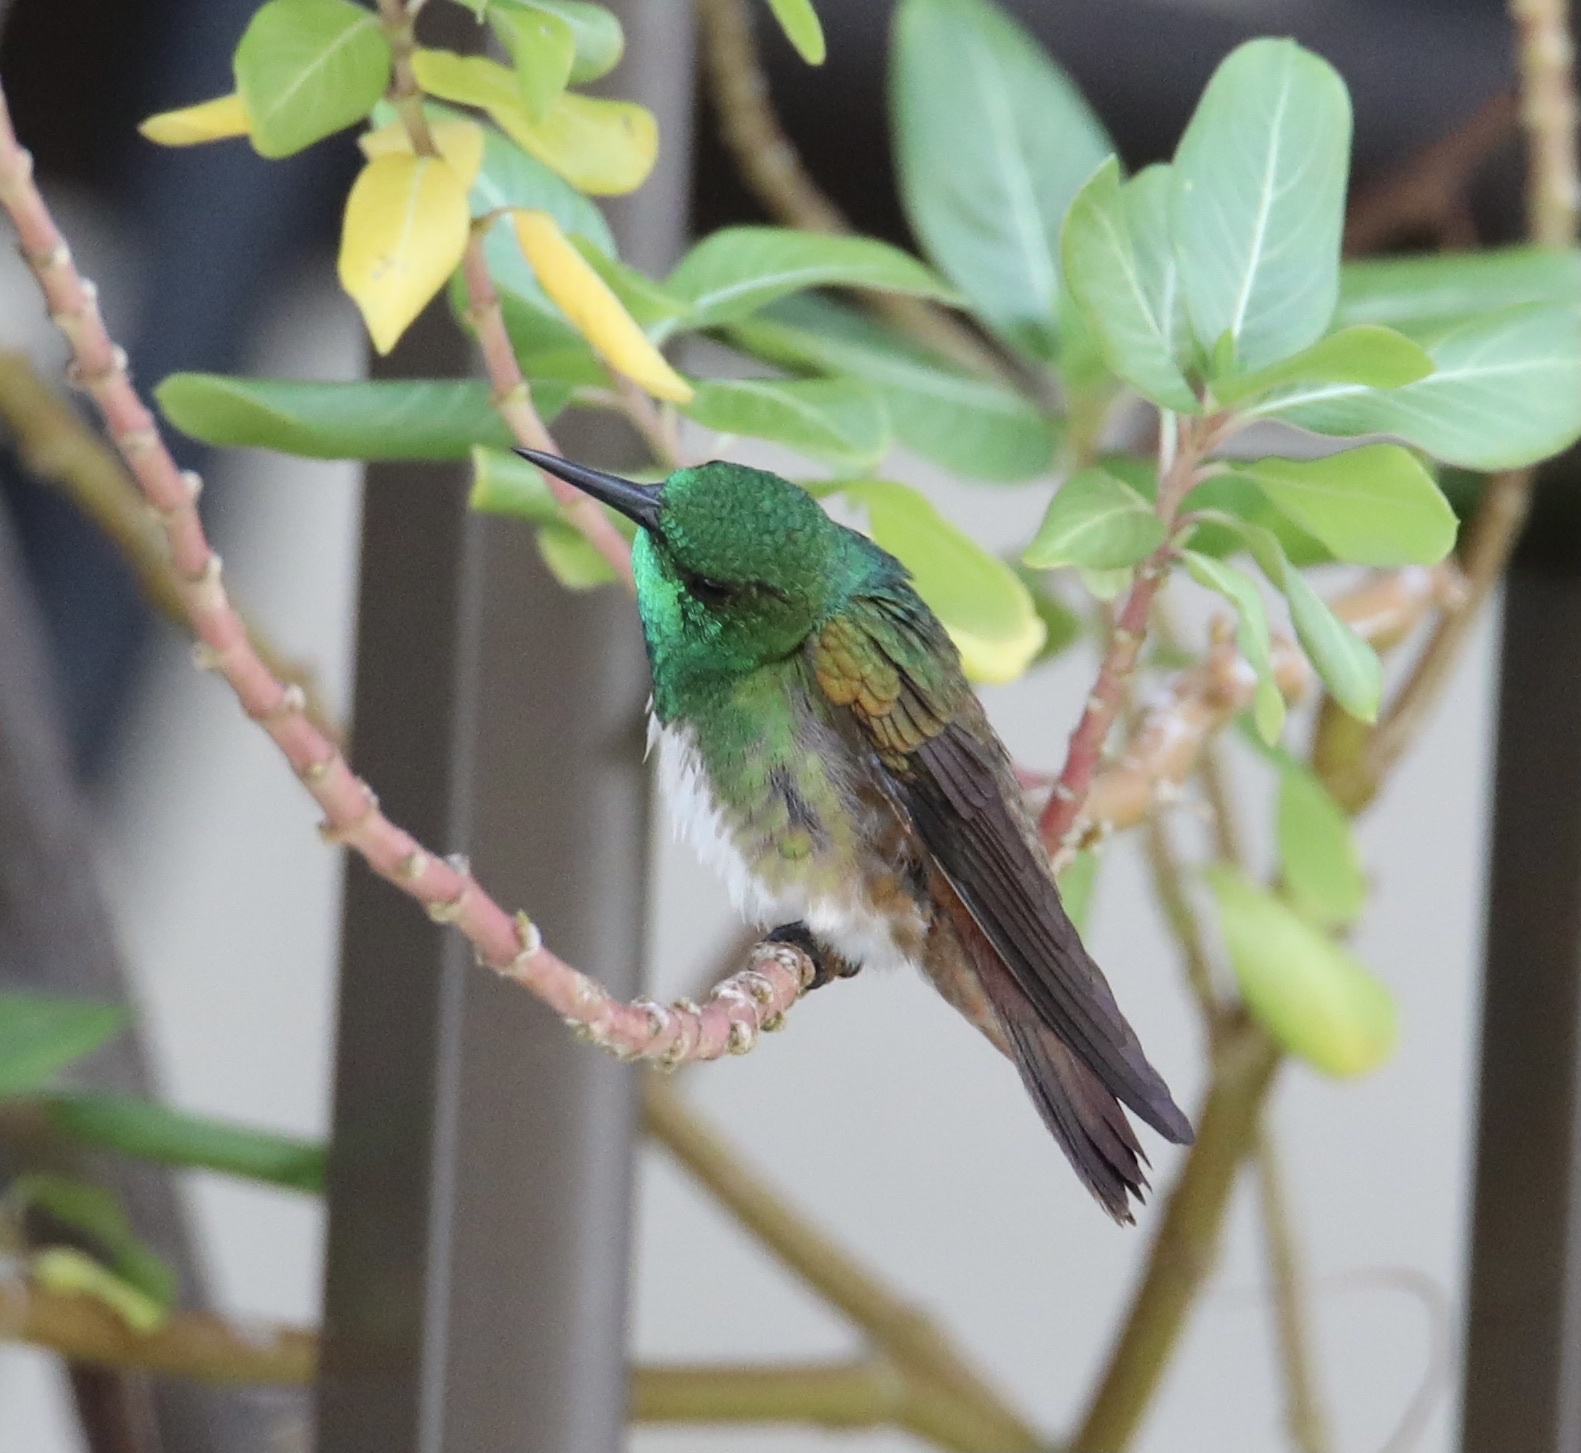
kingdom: Animalia
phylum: Chordata
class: Aves
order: Apodiformes
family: Trochilidae
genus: Saucerottia
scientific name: Saucerottia edward
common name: Snowy-bellied hummingbird
